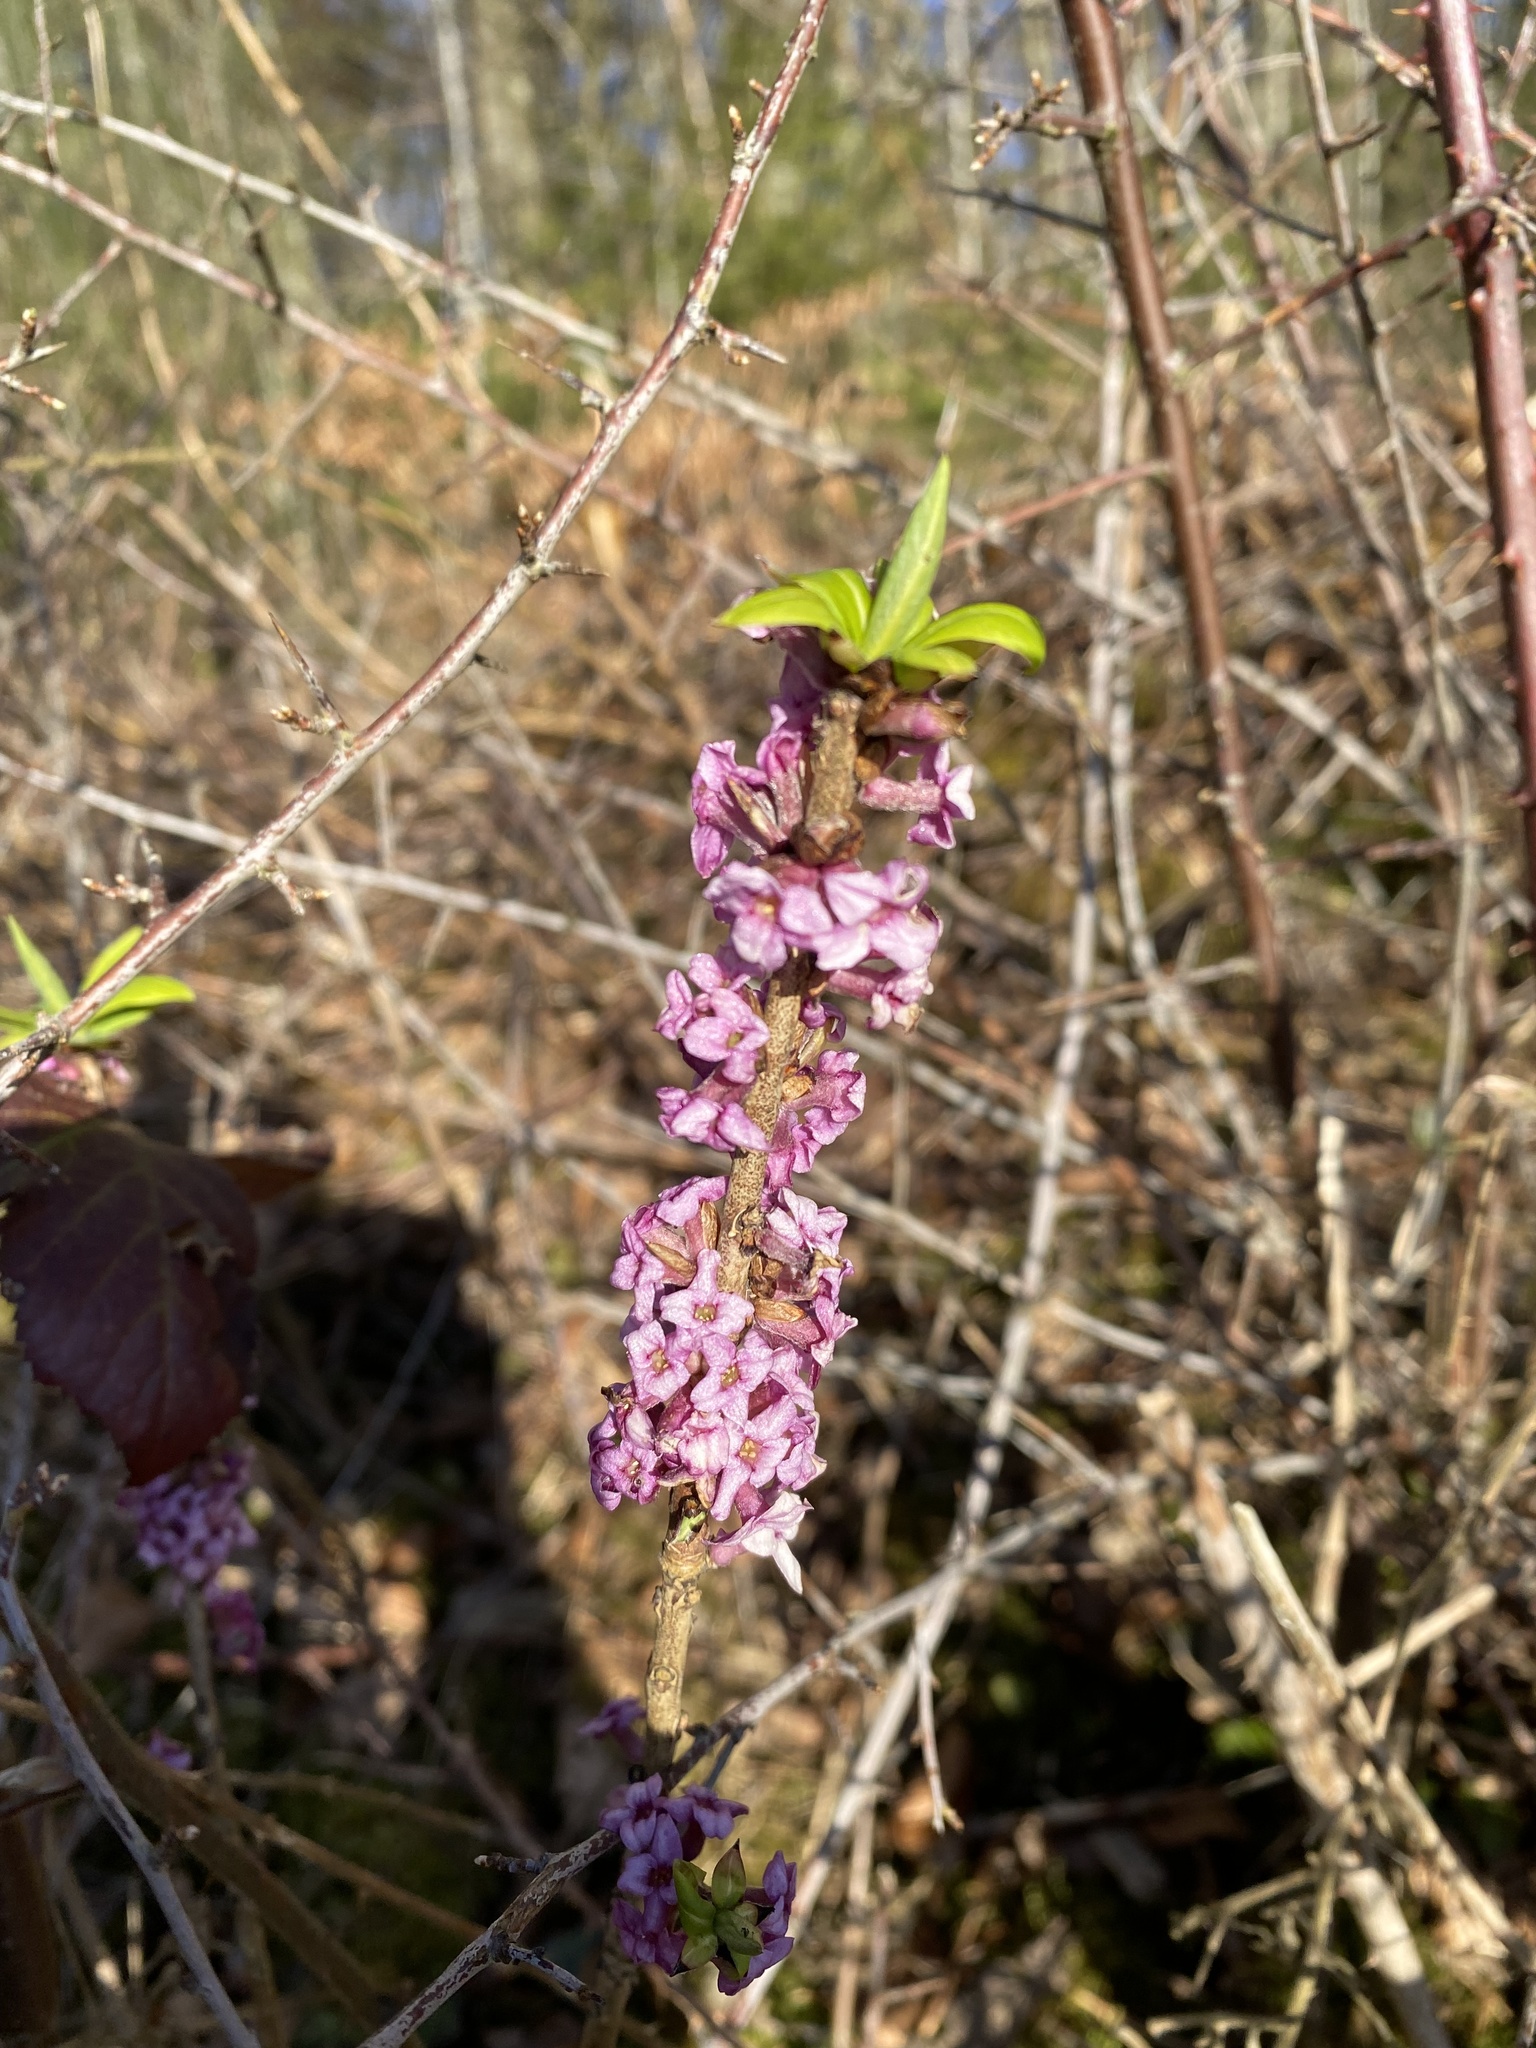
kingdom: Plantae
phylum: Tracheophyta
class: Magnoliopsida
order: Malvales
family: Thymelaeaceae
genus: Daphne
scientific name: Daphne mezereum
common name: Mezereon
